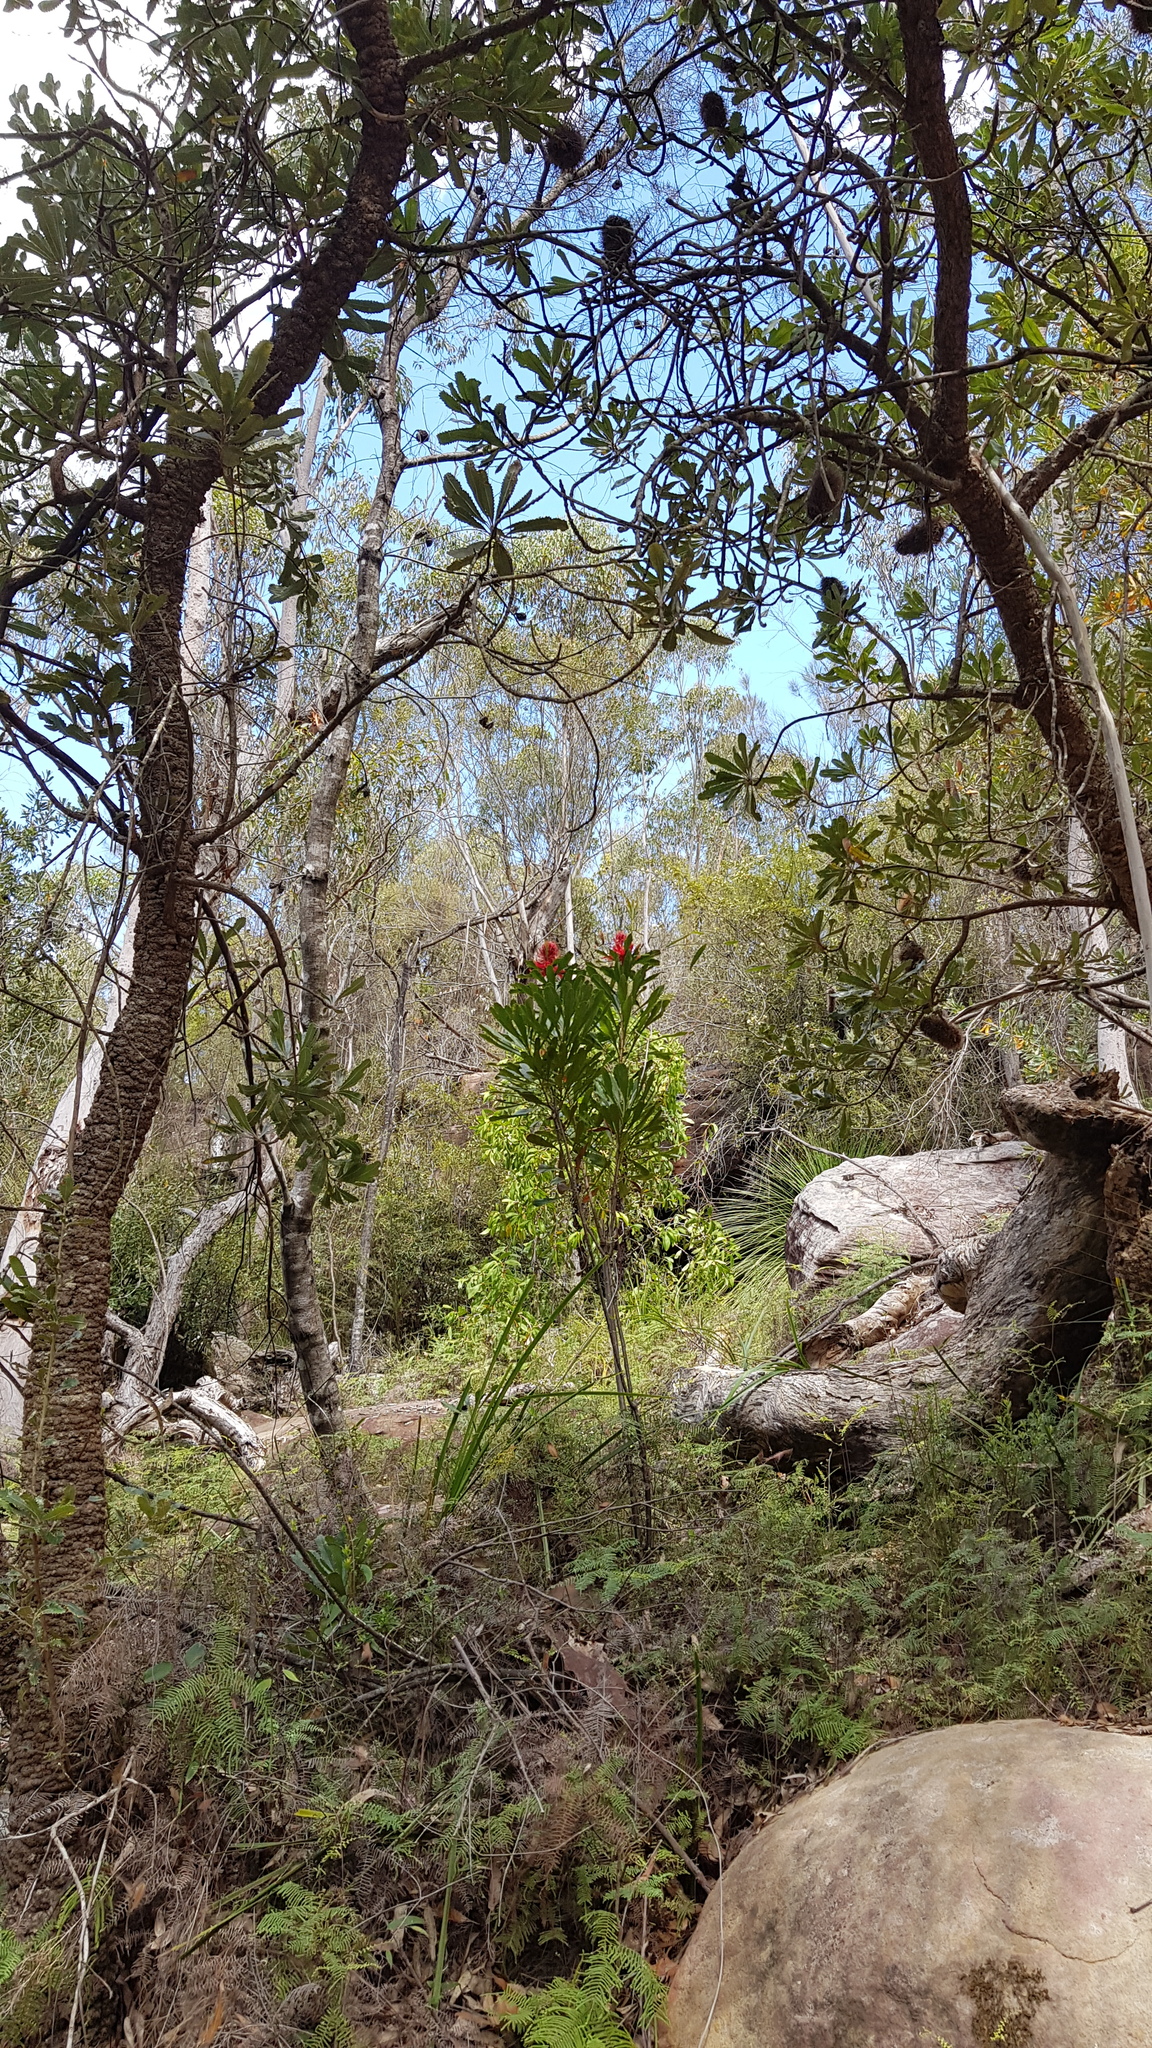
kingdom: Plantae
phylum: Tracheophyta
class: Magnoliopsida
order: Proteales
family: Proteaceae
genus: Telopea
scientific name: Telopea speciosissima
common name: New south wales waratah
